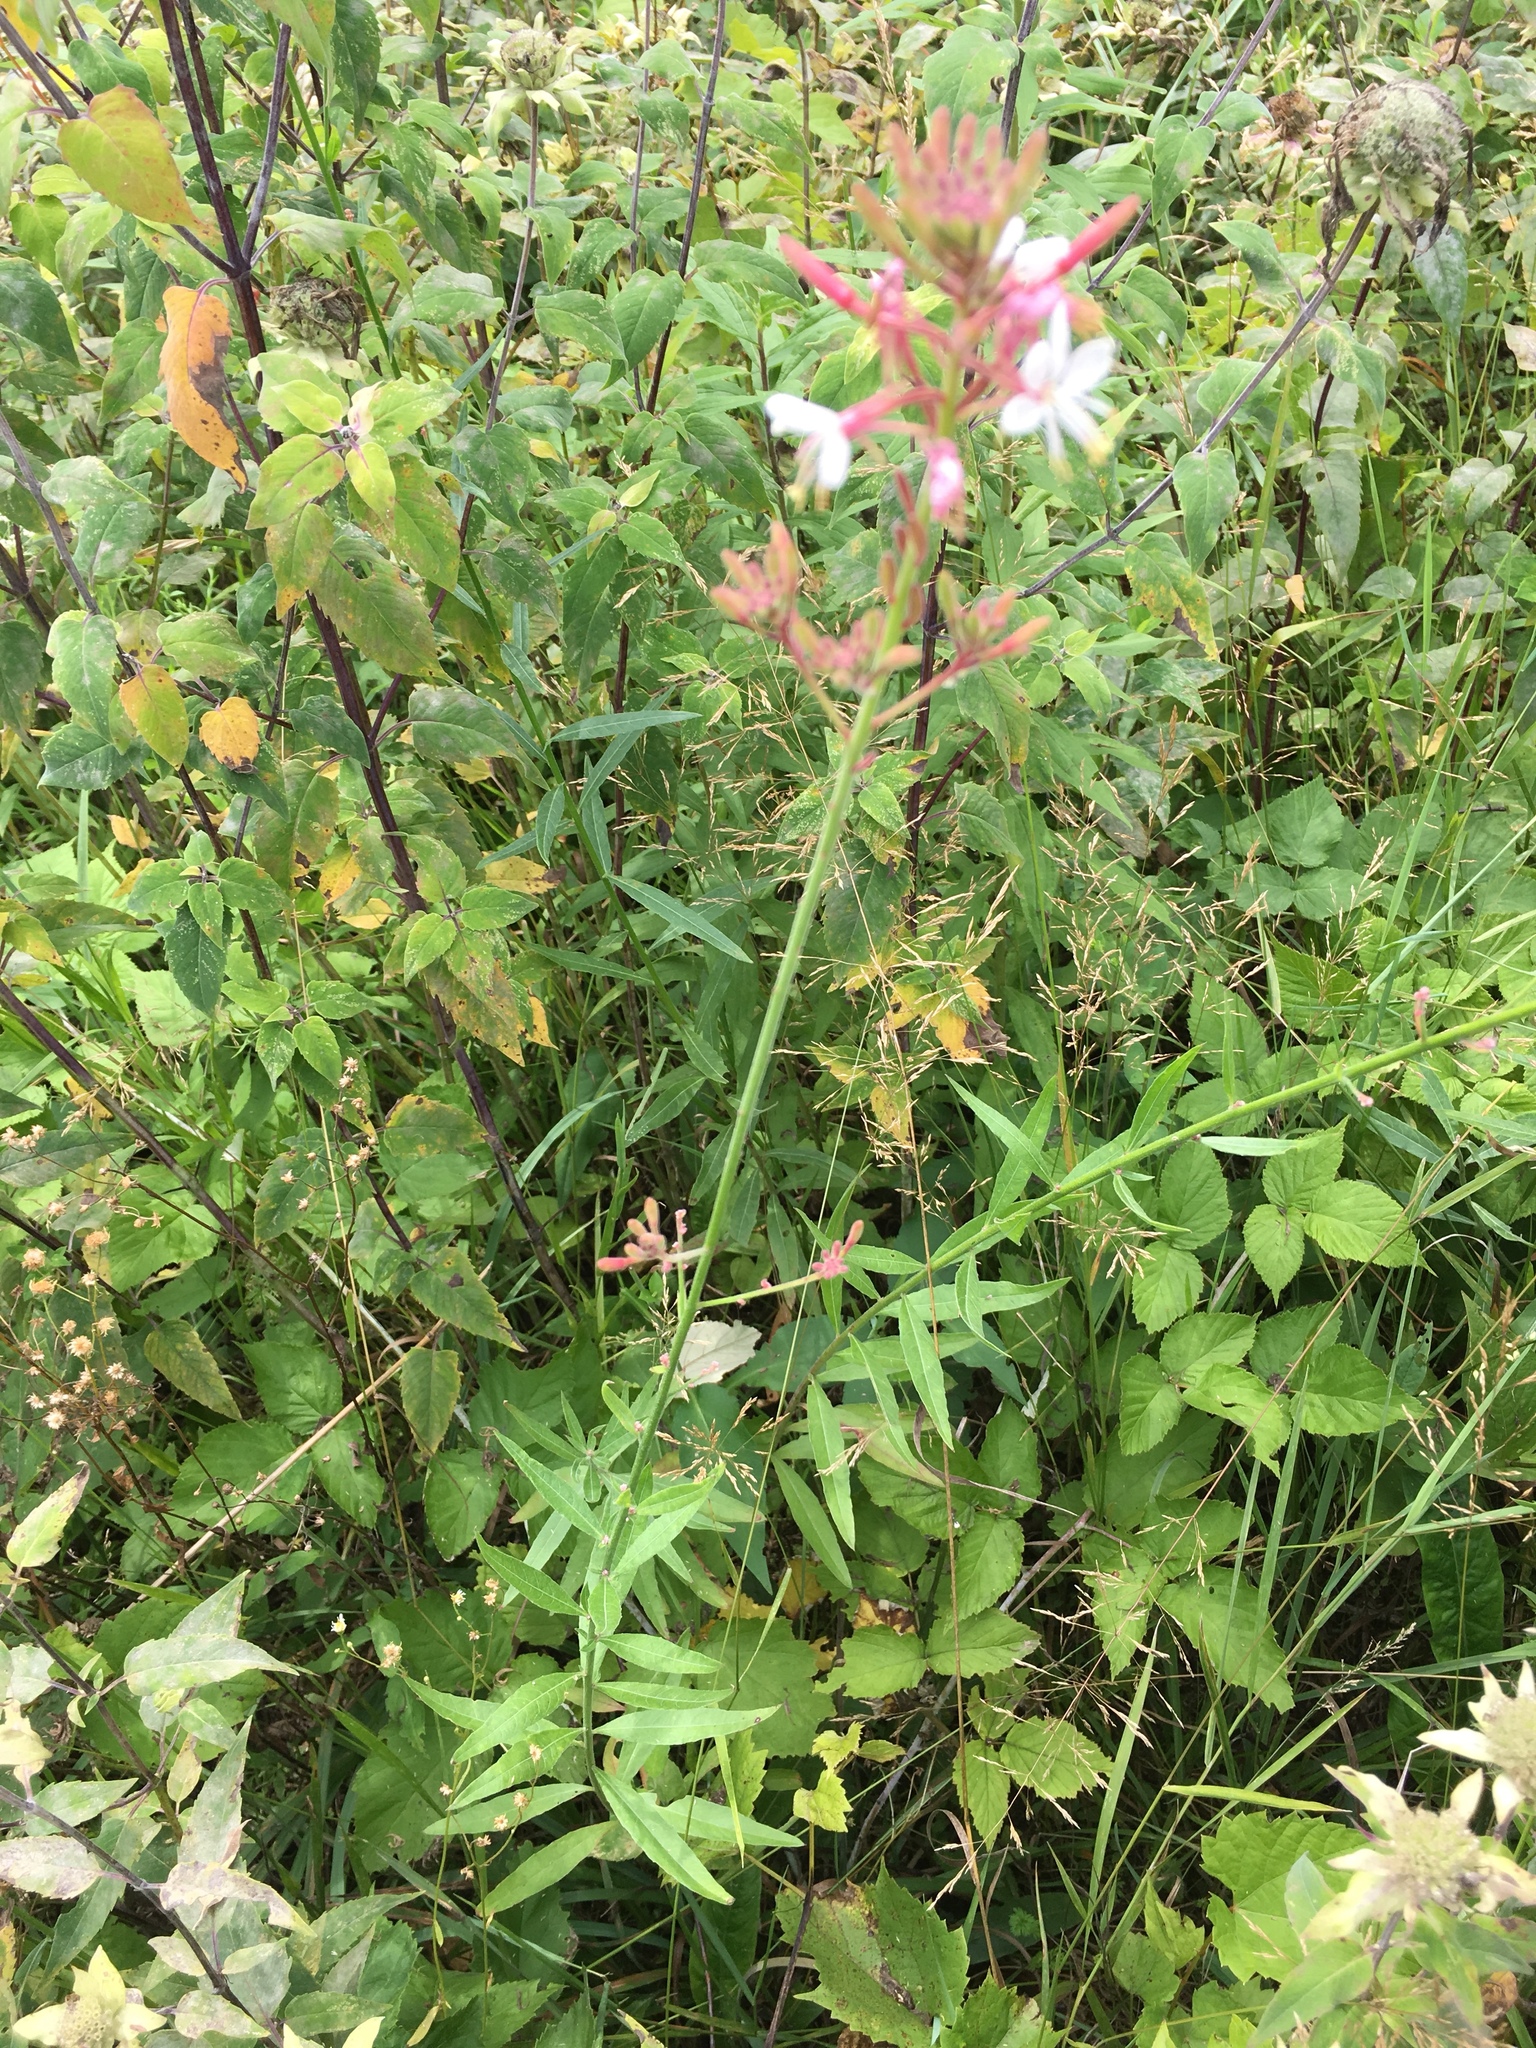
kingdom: Plantae
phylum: Tracheophyta
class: Magnoliopsida
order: Myrtales
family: Onagraceae
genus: Oenothera
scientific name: Oenothera gaura
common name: Biennial beeblossom
